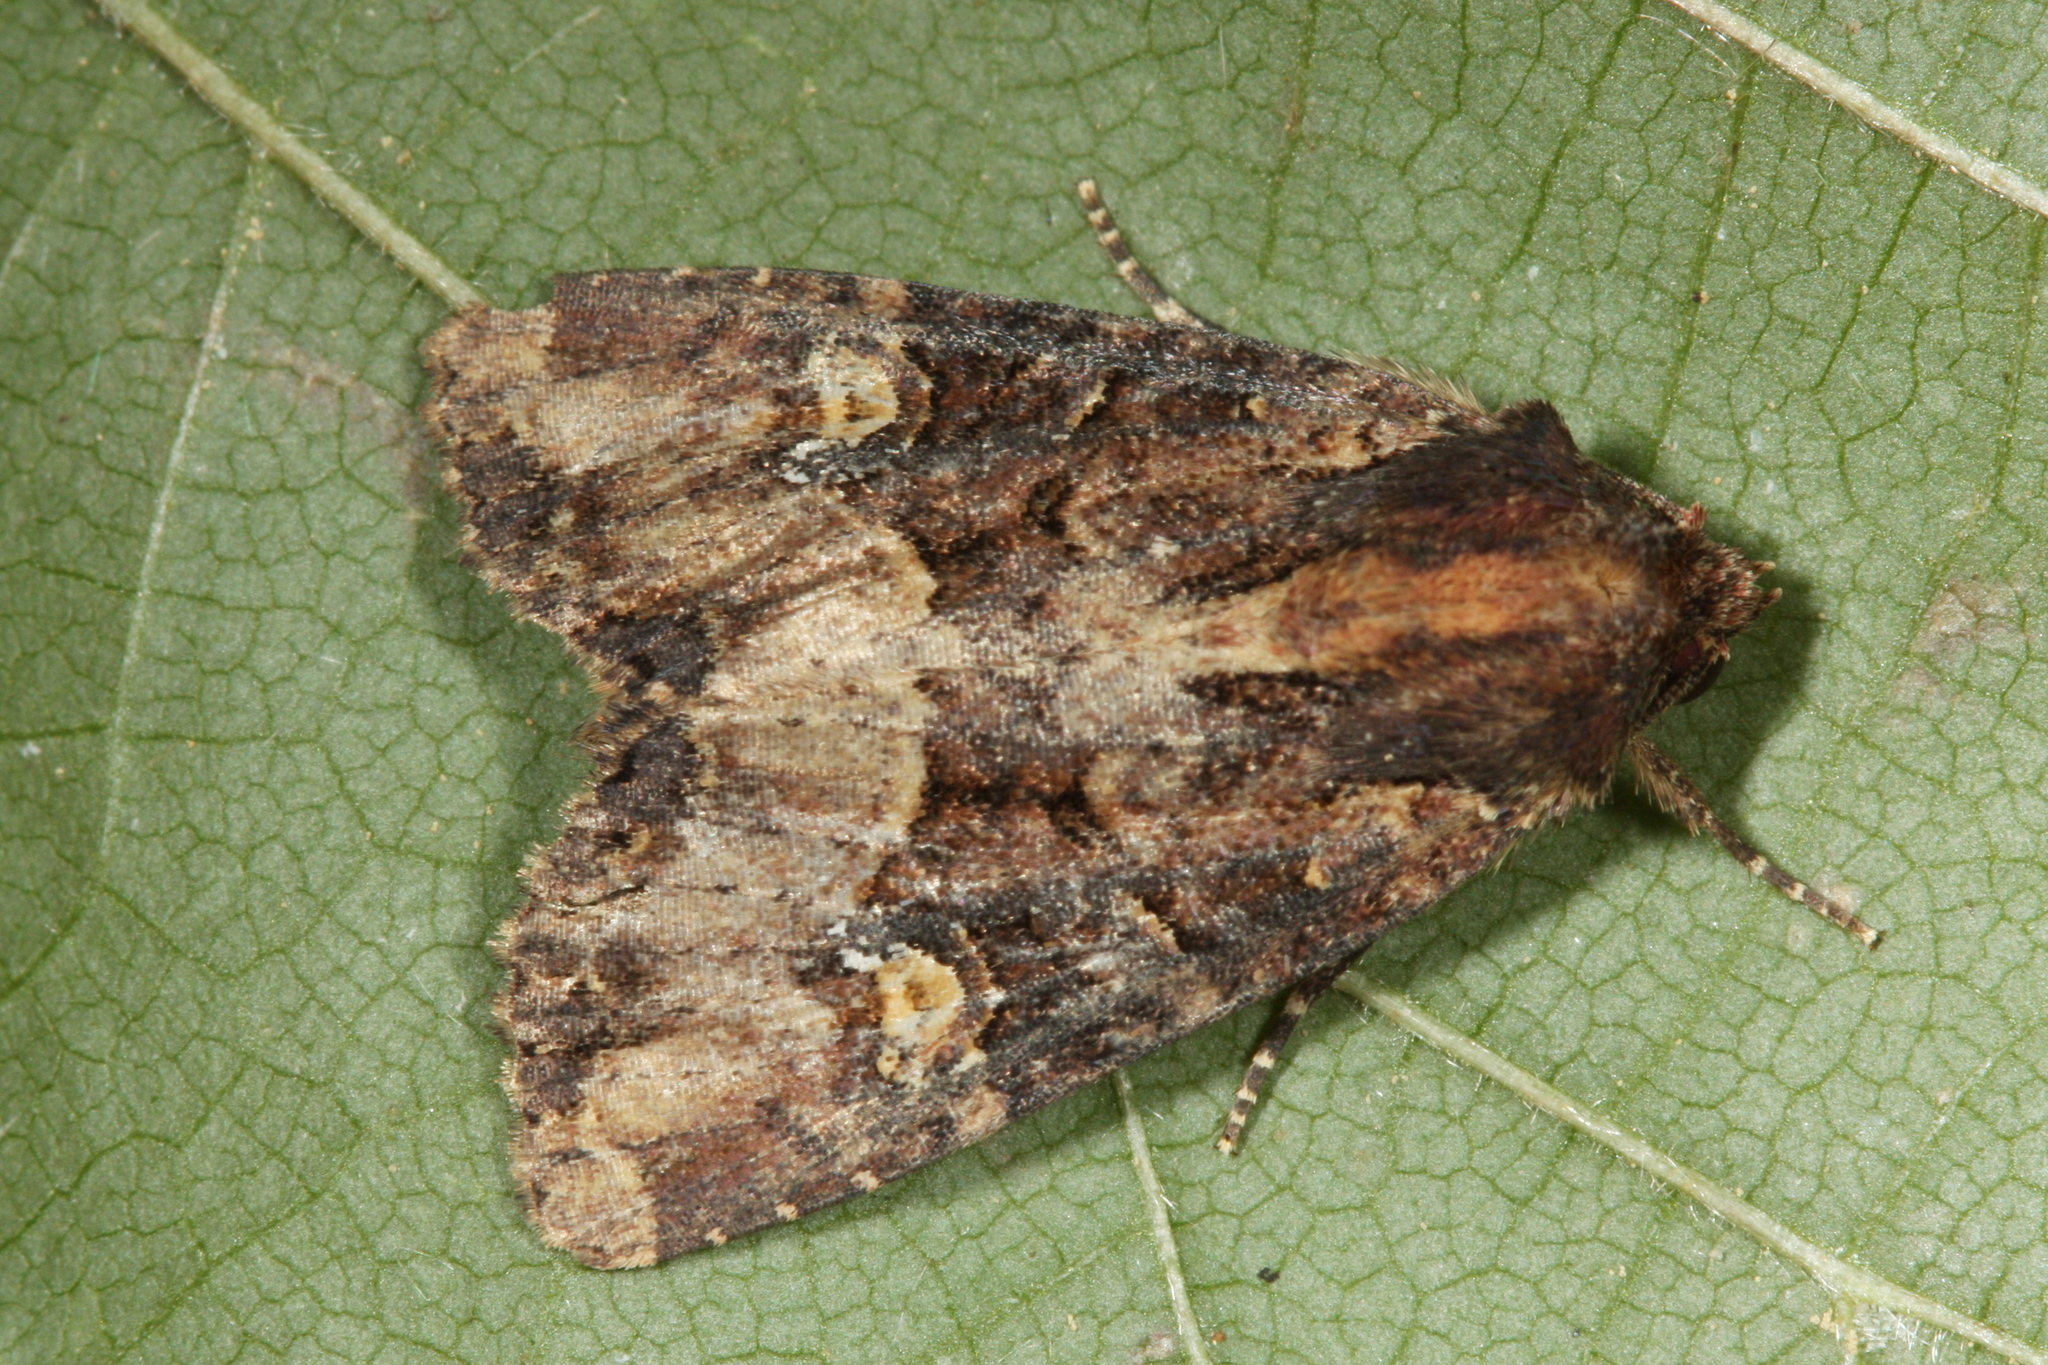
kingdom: Animalia
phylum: Arthropoda
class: Insecta
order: Lepidoptera
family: Noctuidae
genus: Mesapamea
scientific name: Mesapamea
